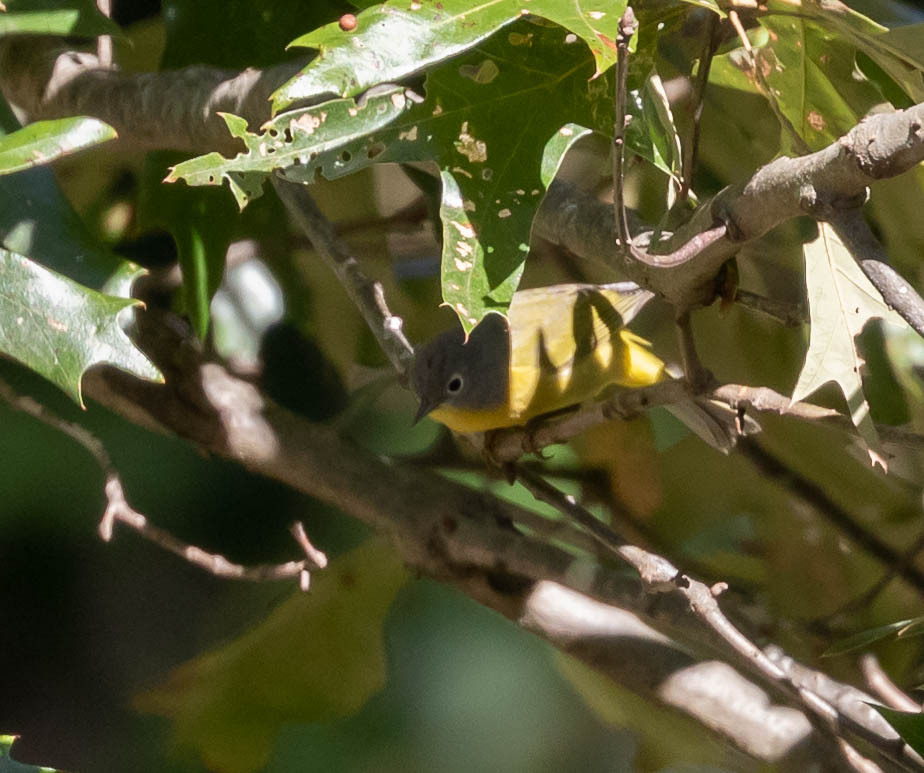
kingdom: Animalia
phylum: Chordata
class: Aves
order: Passeriformes
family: Parulidae
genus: Leiothlypis
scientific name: Leiothlypis ruficapilla
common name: Nashville warbler
